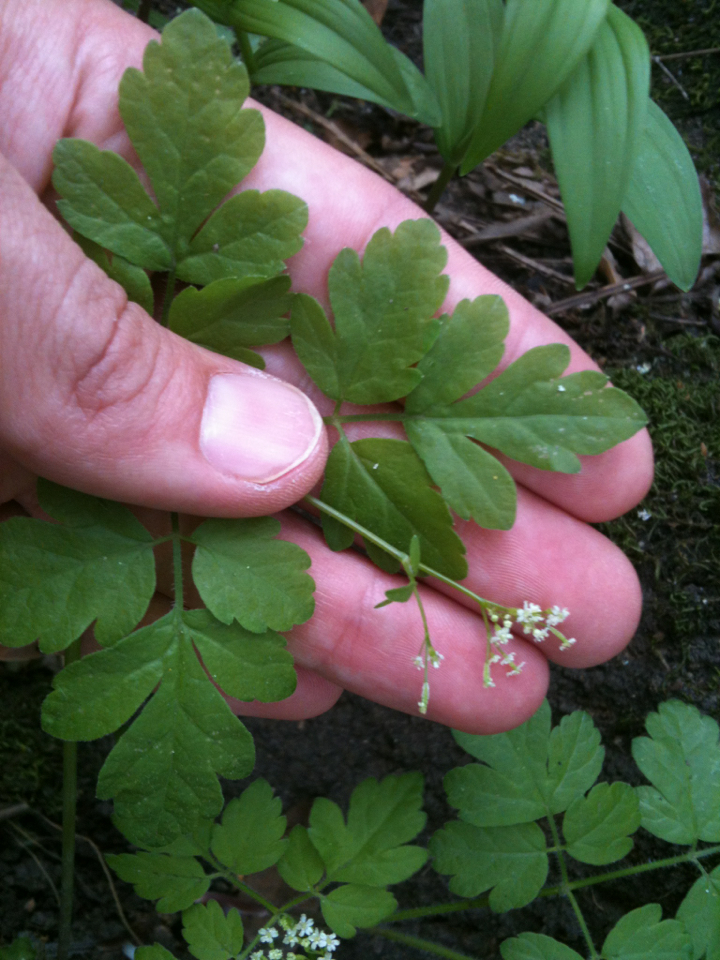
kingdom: Plantae
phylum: Tracheophyta
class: Magnoliopsida
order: Apiales
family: Apiaceae
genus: Osmorhiza
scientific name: Osmorhiza berteroi
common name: Mountain sweet cicely
